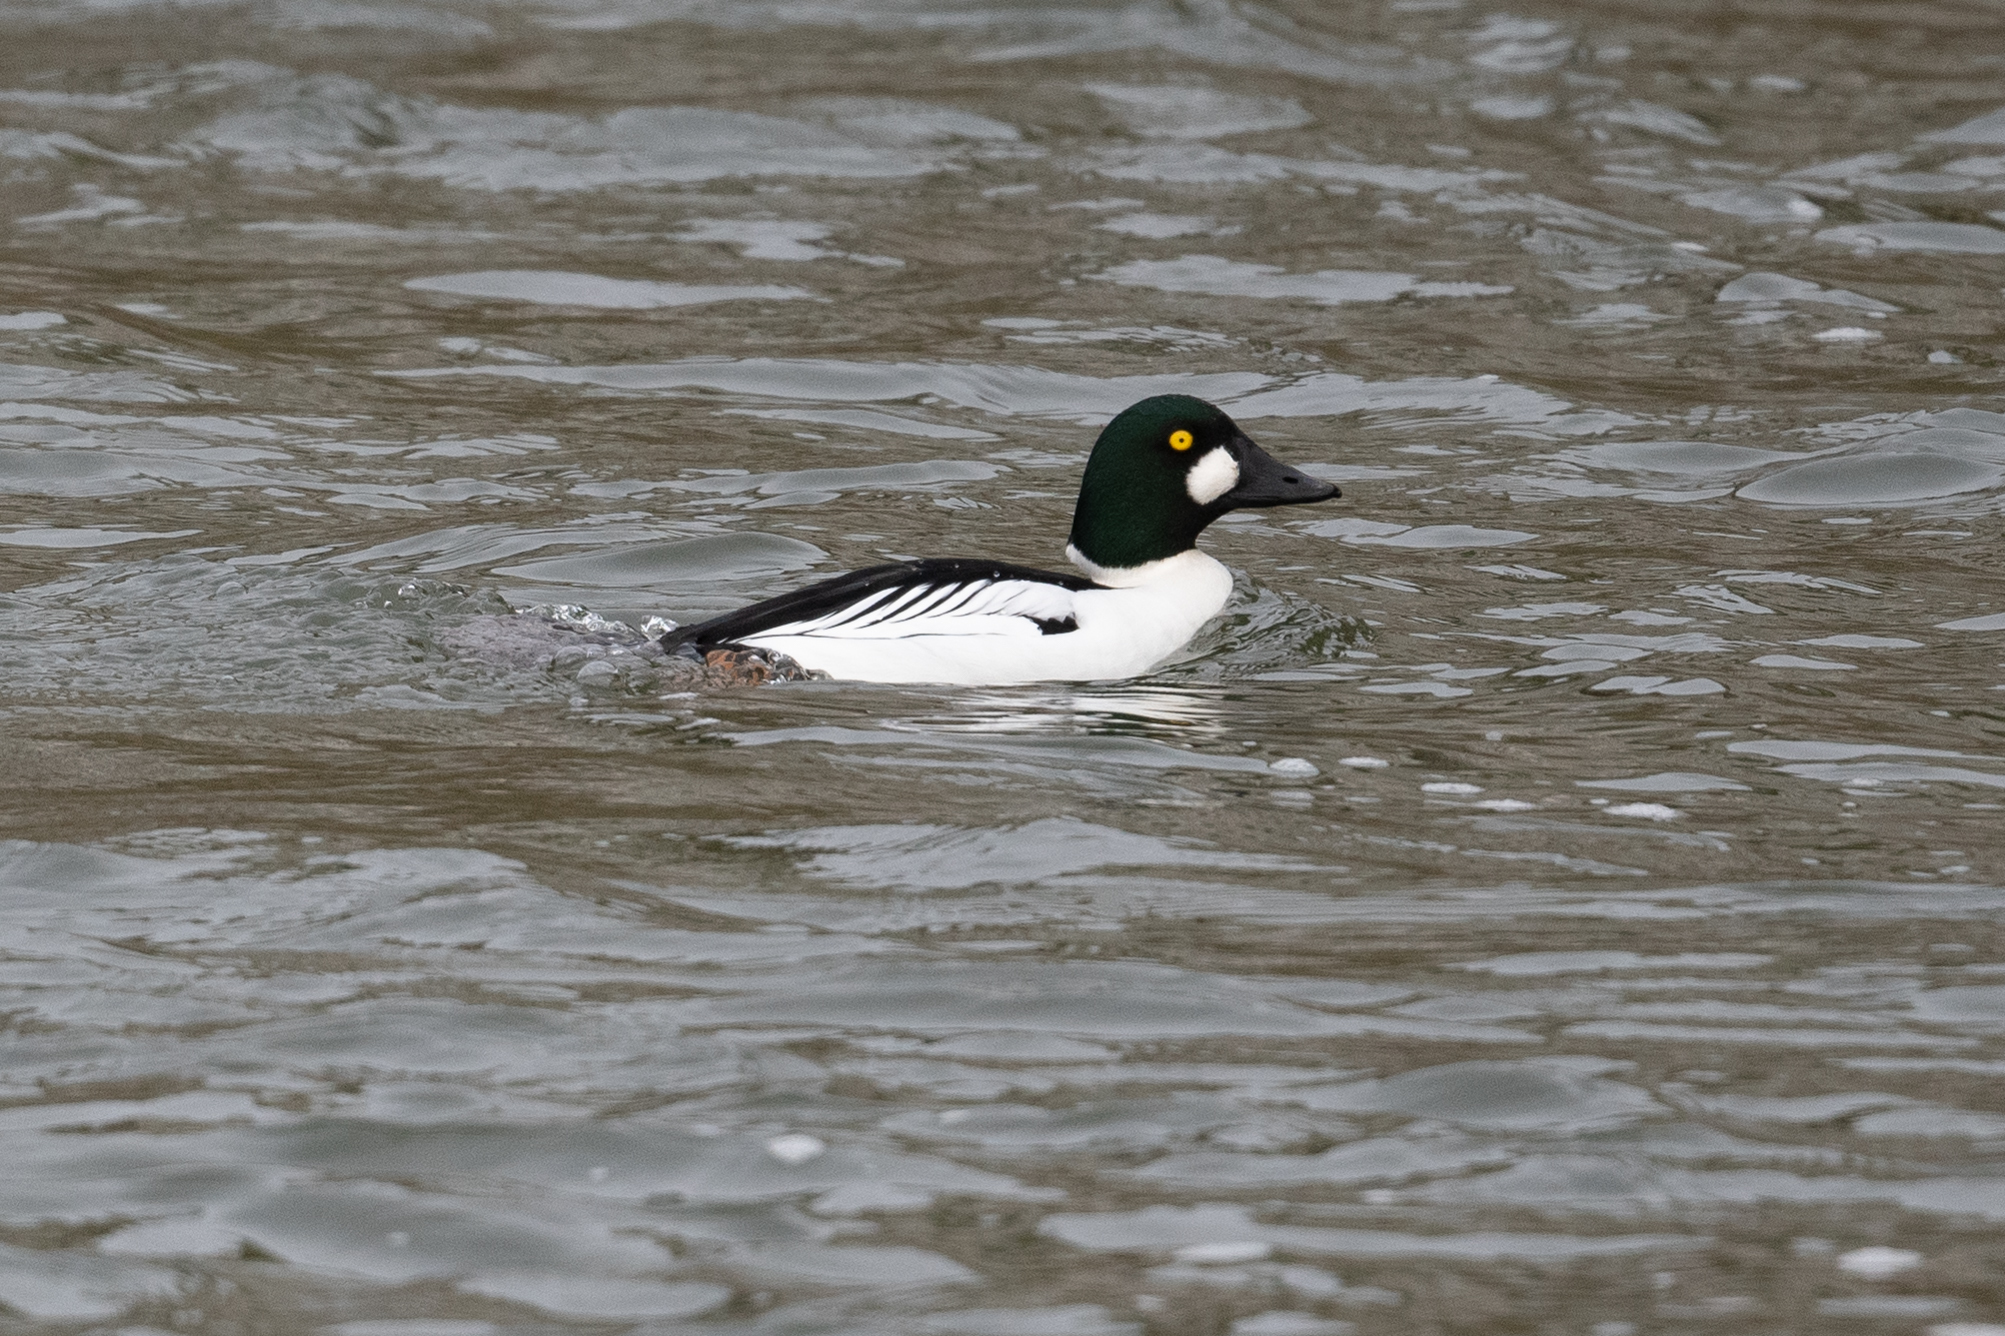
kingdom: Animalia
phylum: Chordata
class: Aves
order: Anseriformes
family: Anatidae
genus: Bucephala
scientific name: Bucephala clangula
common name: Common goldeneye
